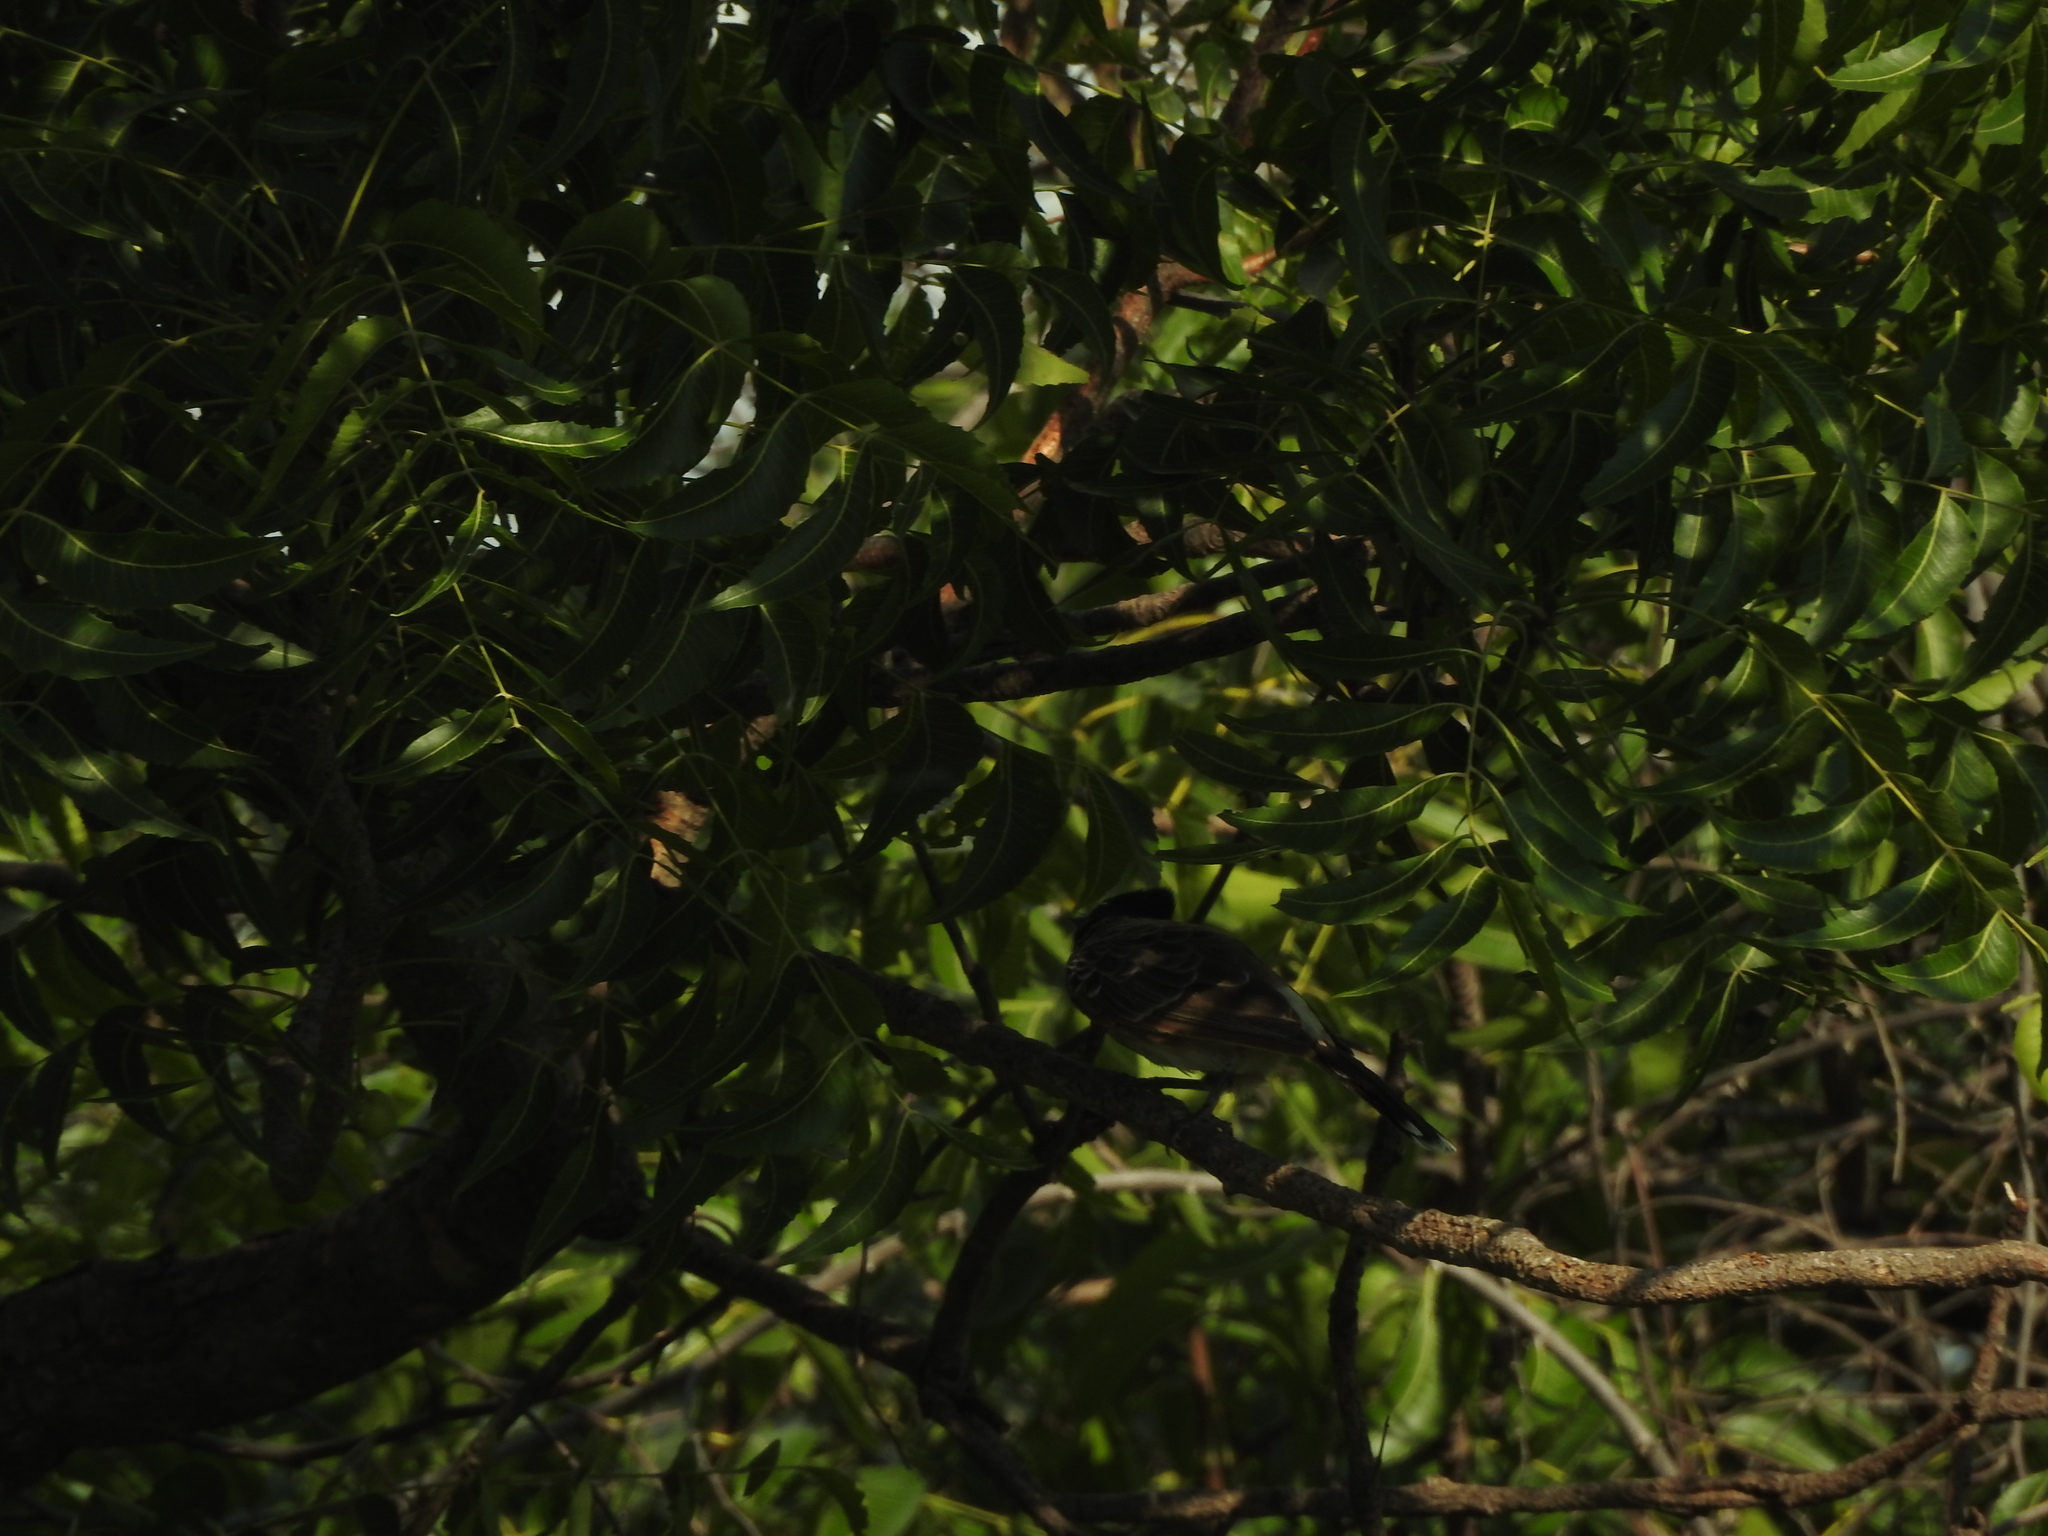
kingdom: Animalia
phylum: Chordata
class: Aves
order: Passeriformes
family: Pycnonotidae
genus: Pycnonotus
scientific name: Pycnonotus cafer
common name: Red-vented bulbul
